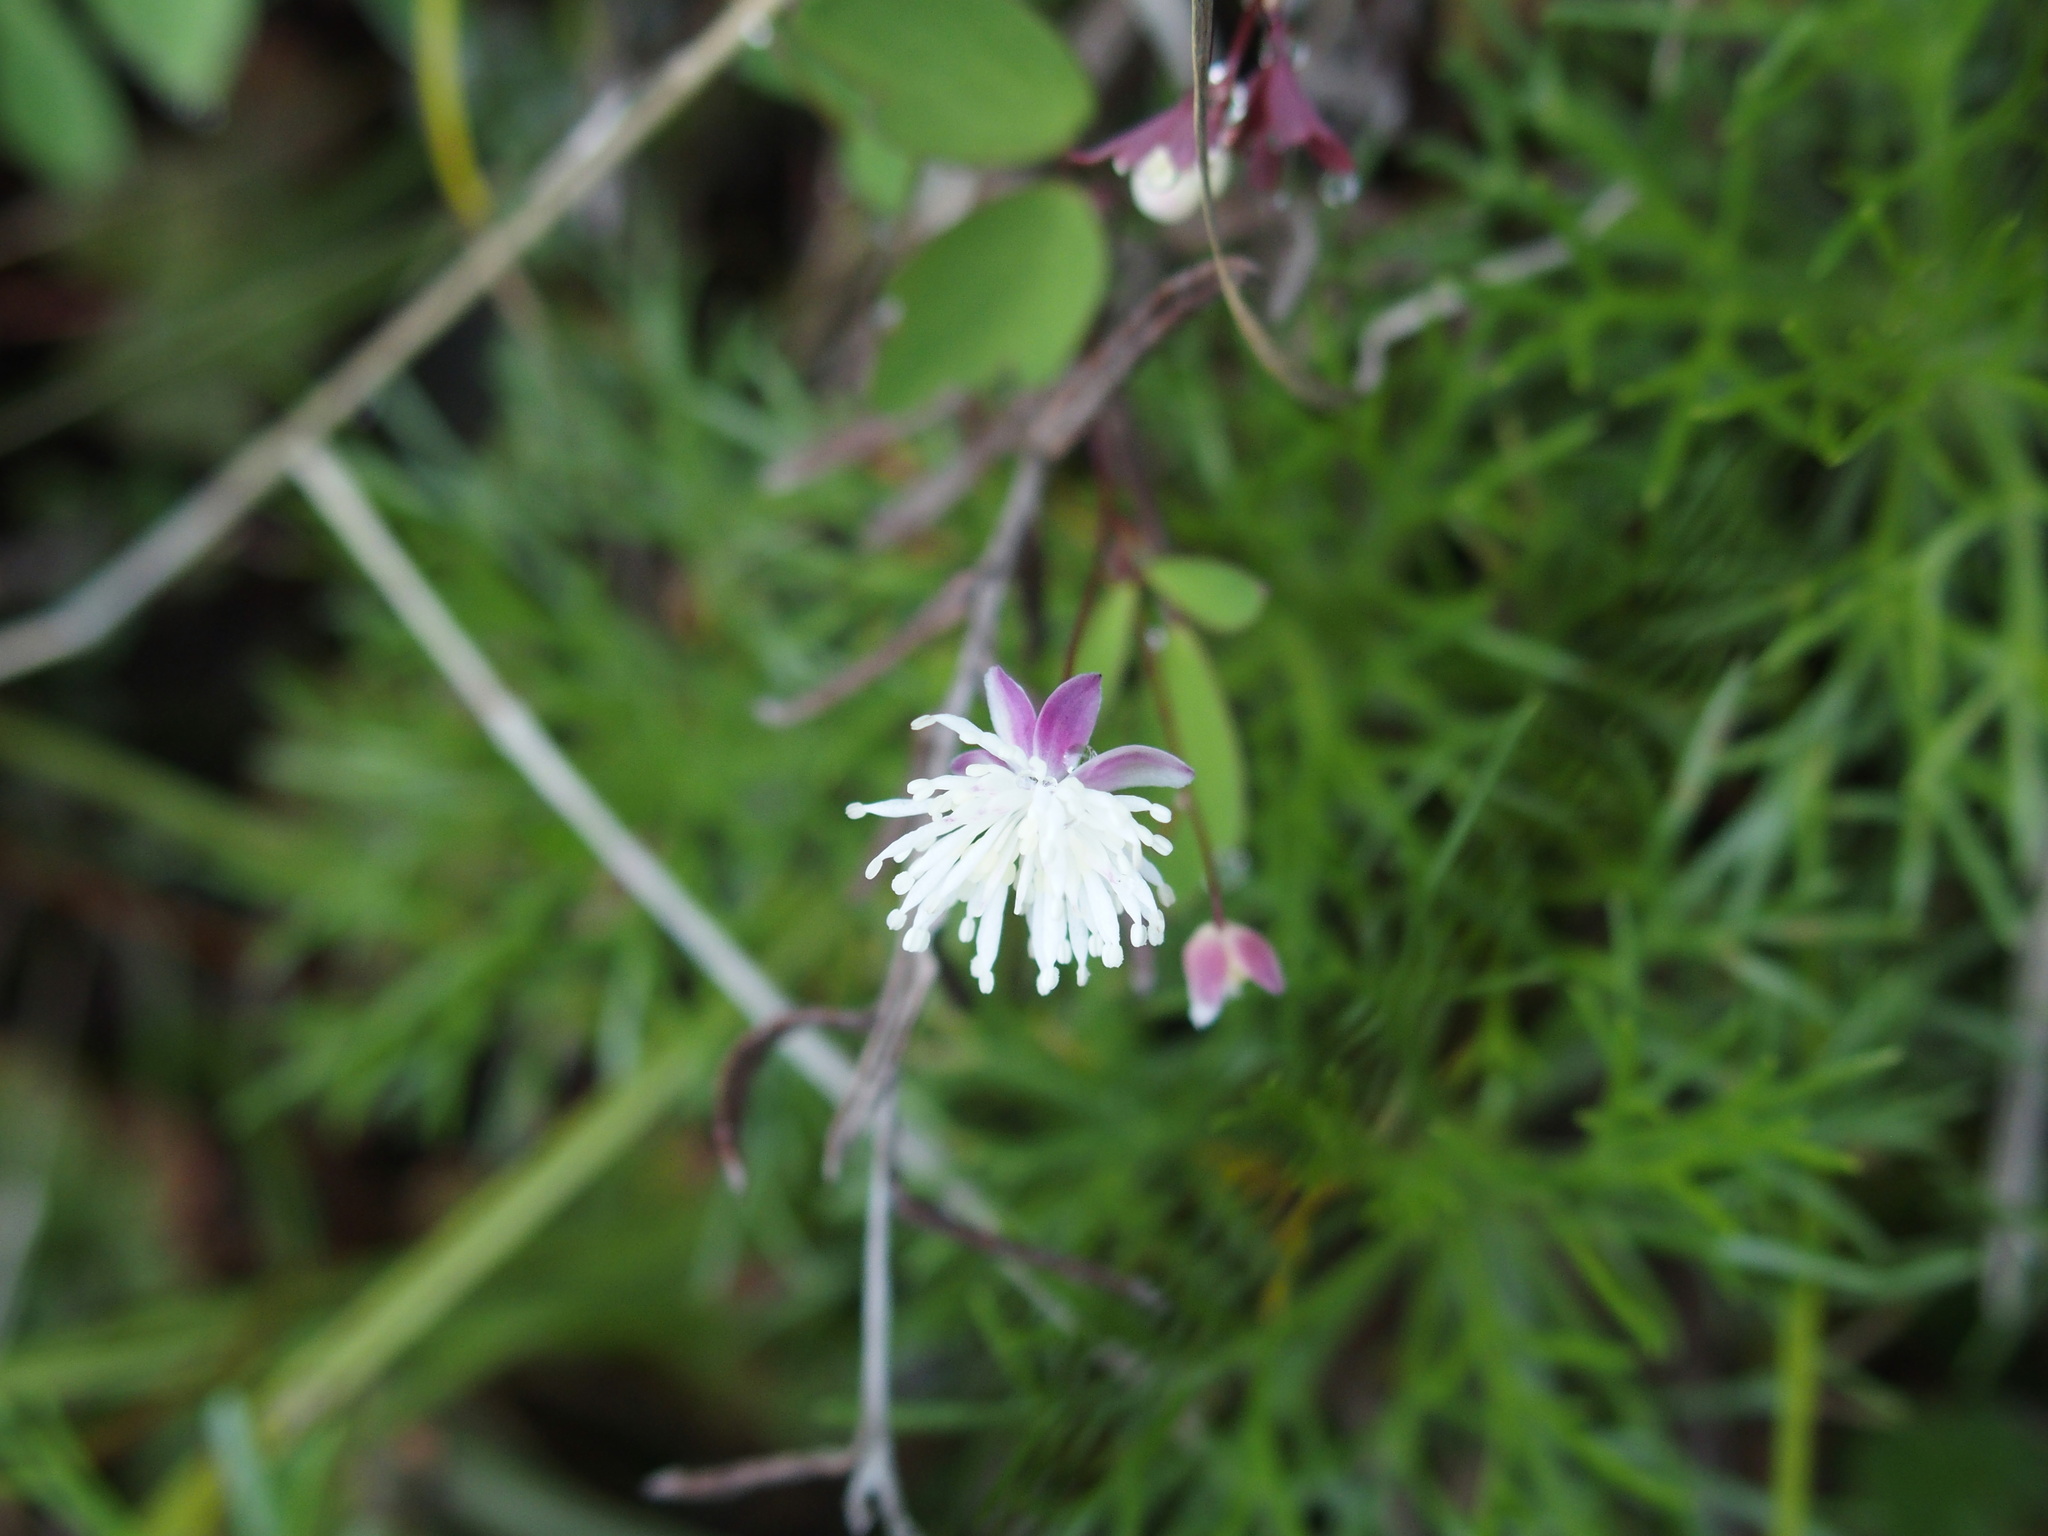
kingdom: Plantae
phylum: Tracheophyta
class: Magnoliopsida
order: Ranunculales
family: Ranunculaceae
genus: Thalictrum
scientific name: Thalictrum urbaini
